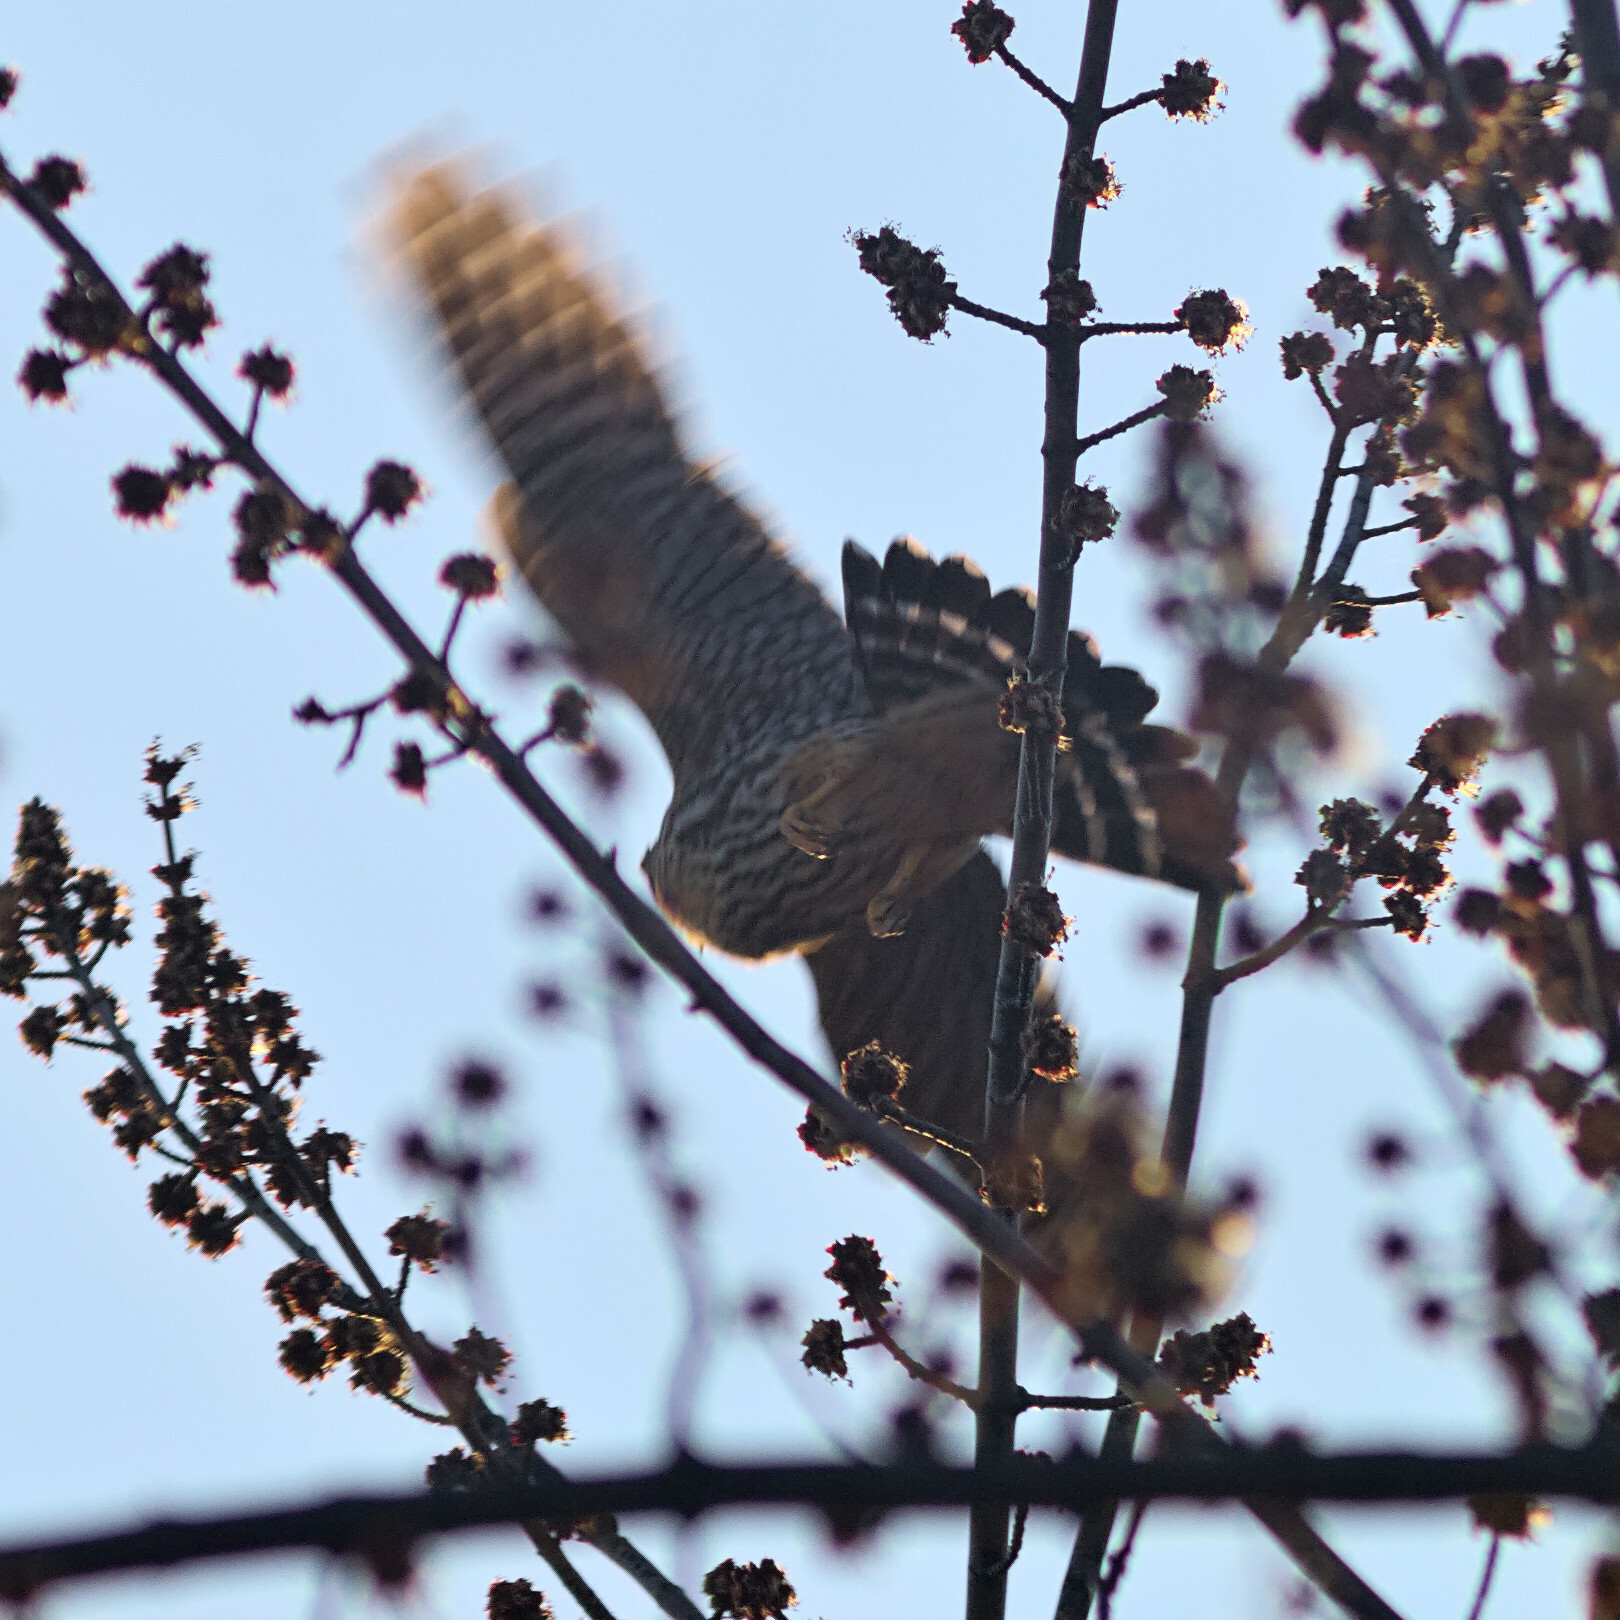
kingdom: Animalia
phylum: Chordata
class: Aves
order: Falconiformes
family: Falconidae
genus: Falco
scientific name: Falco columbarius
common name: Merlin
